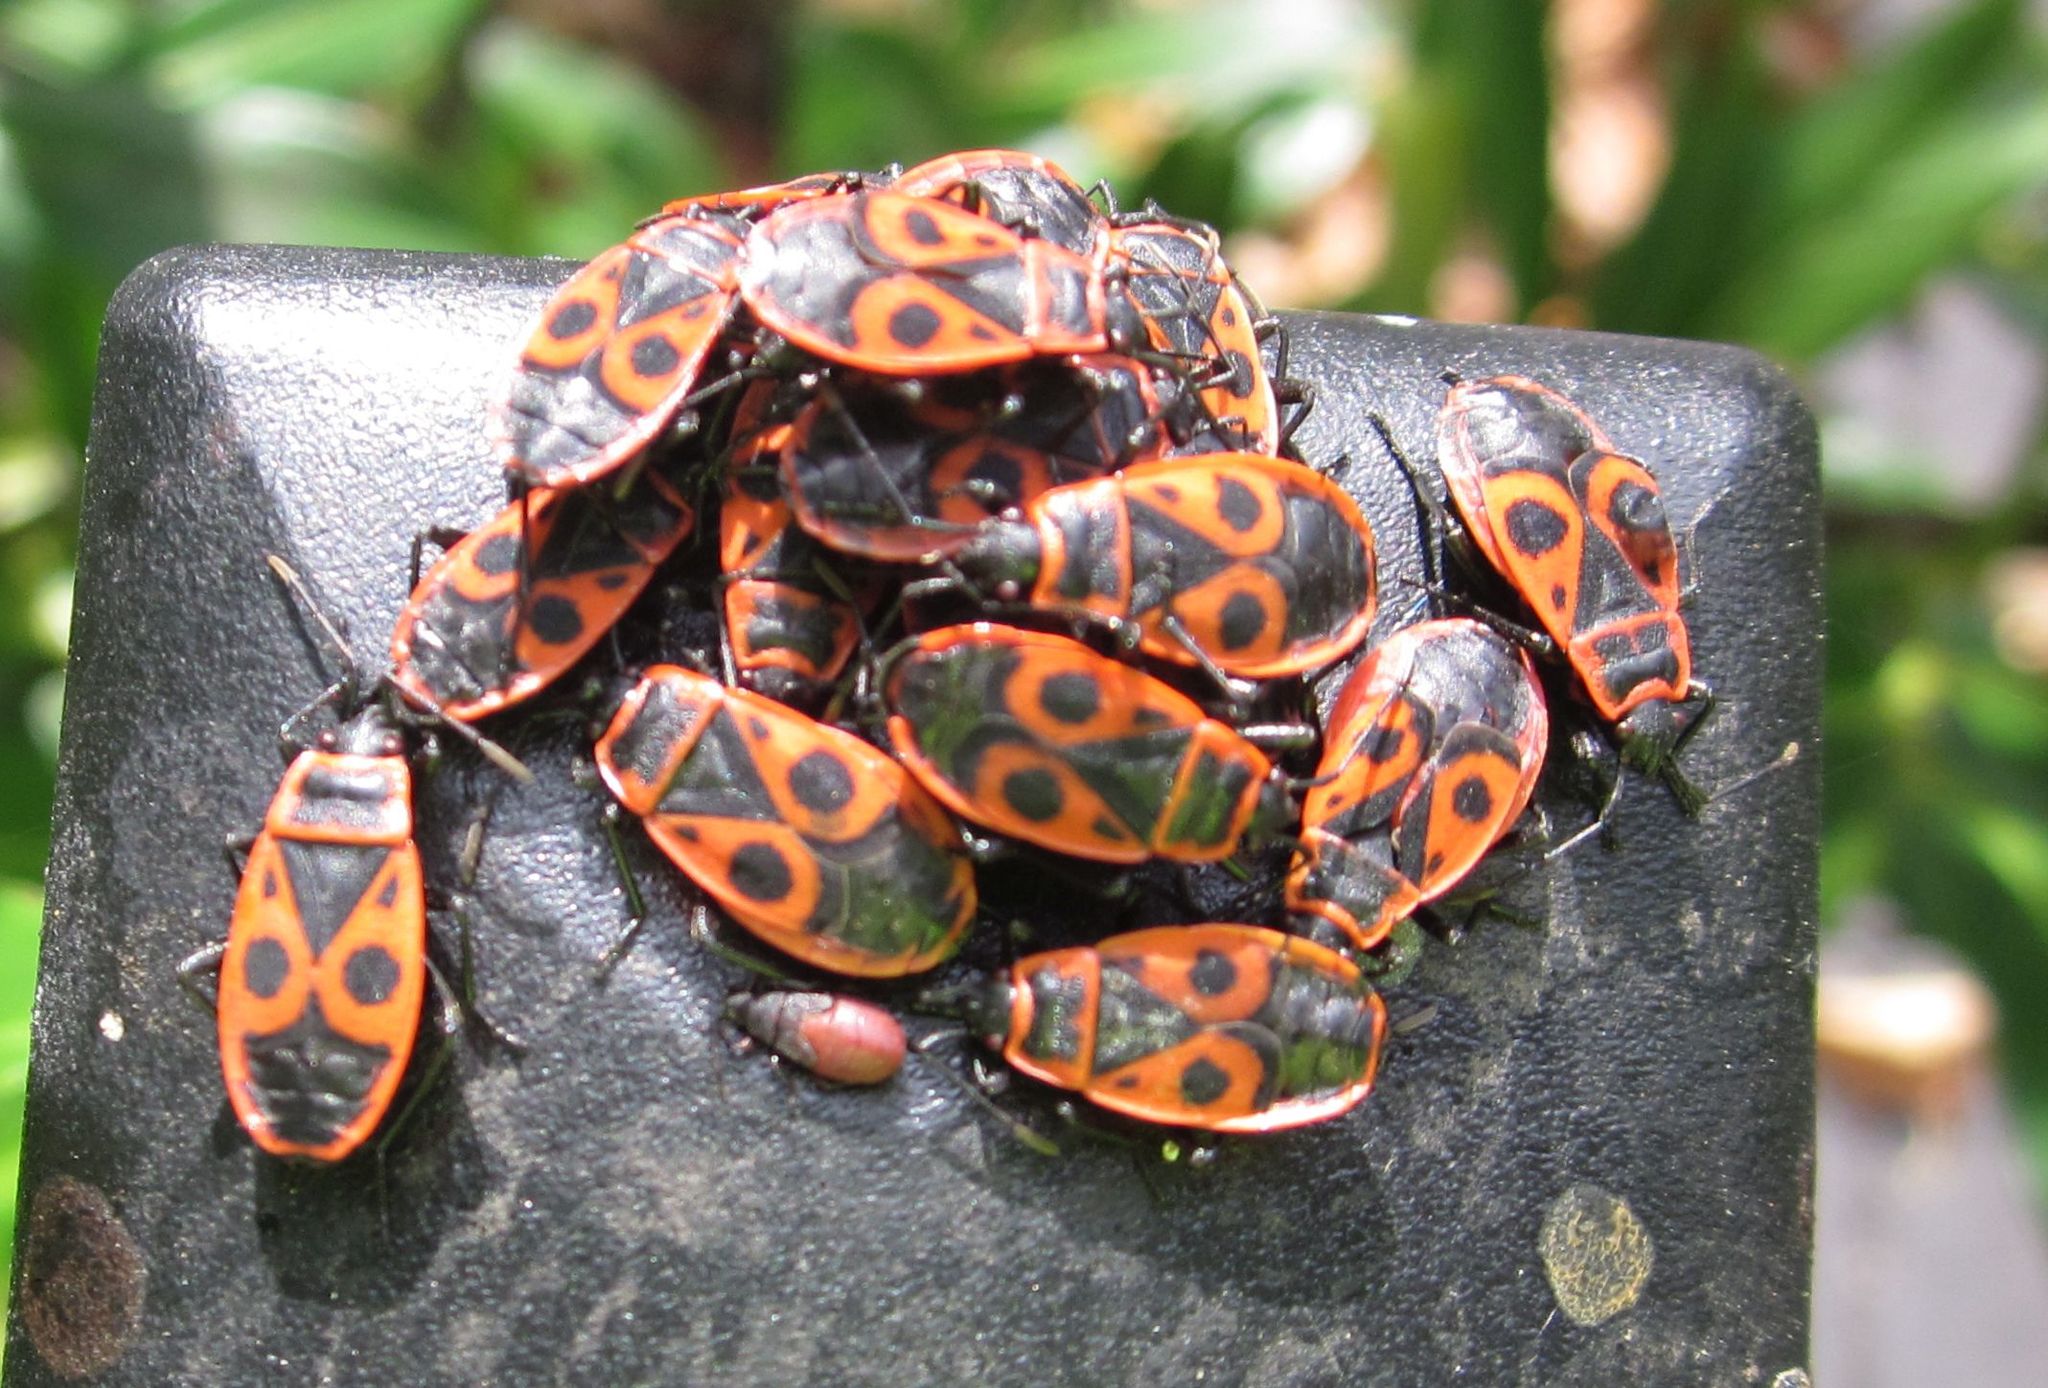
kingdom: Animalia
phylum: Arthropoda
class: Insecta
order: Hemiptera
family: Pyrrhocoridae
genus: Pyrrhocoris
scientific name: Pyrrhocoris apterus
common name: Firebug
